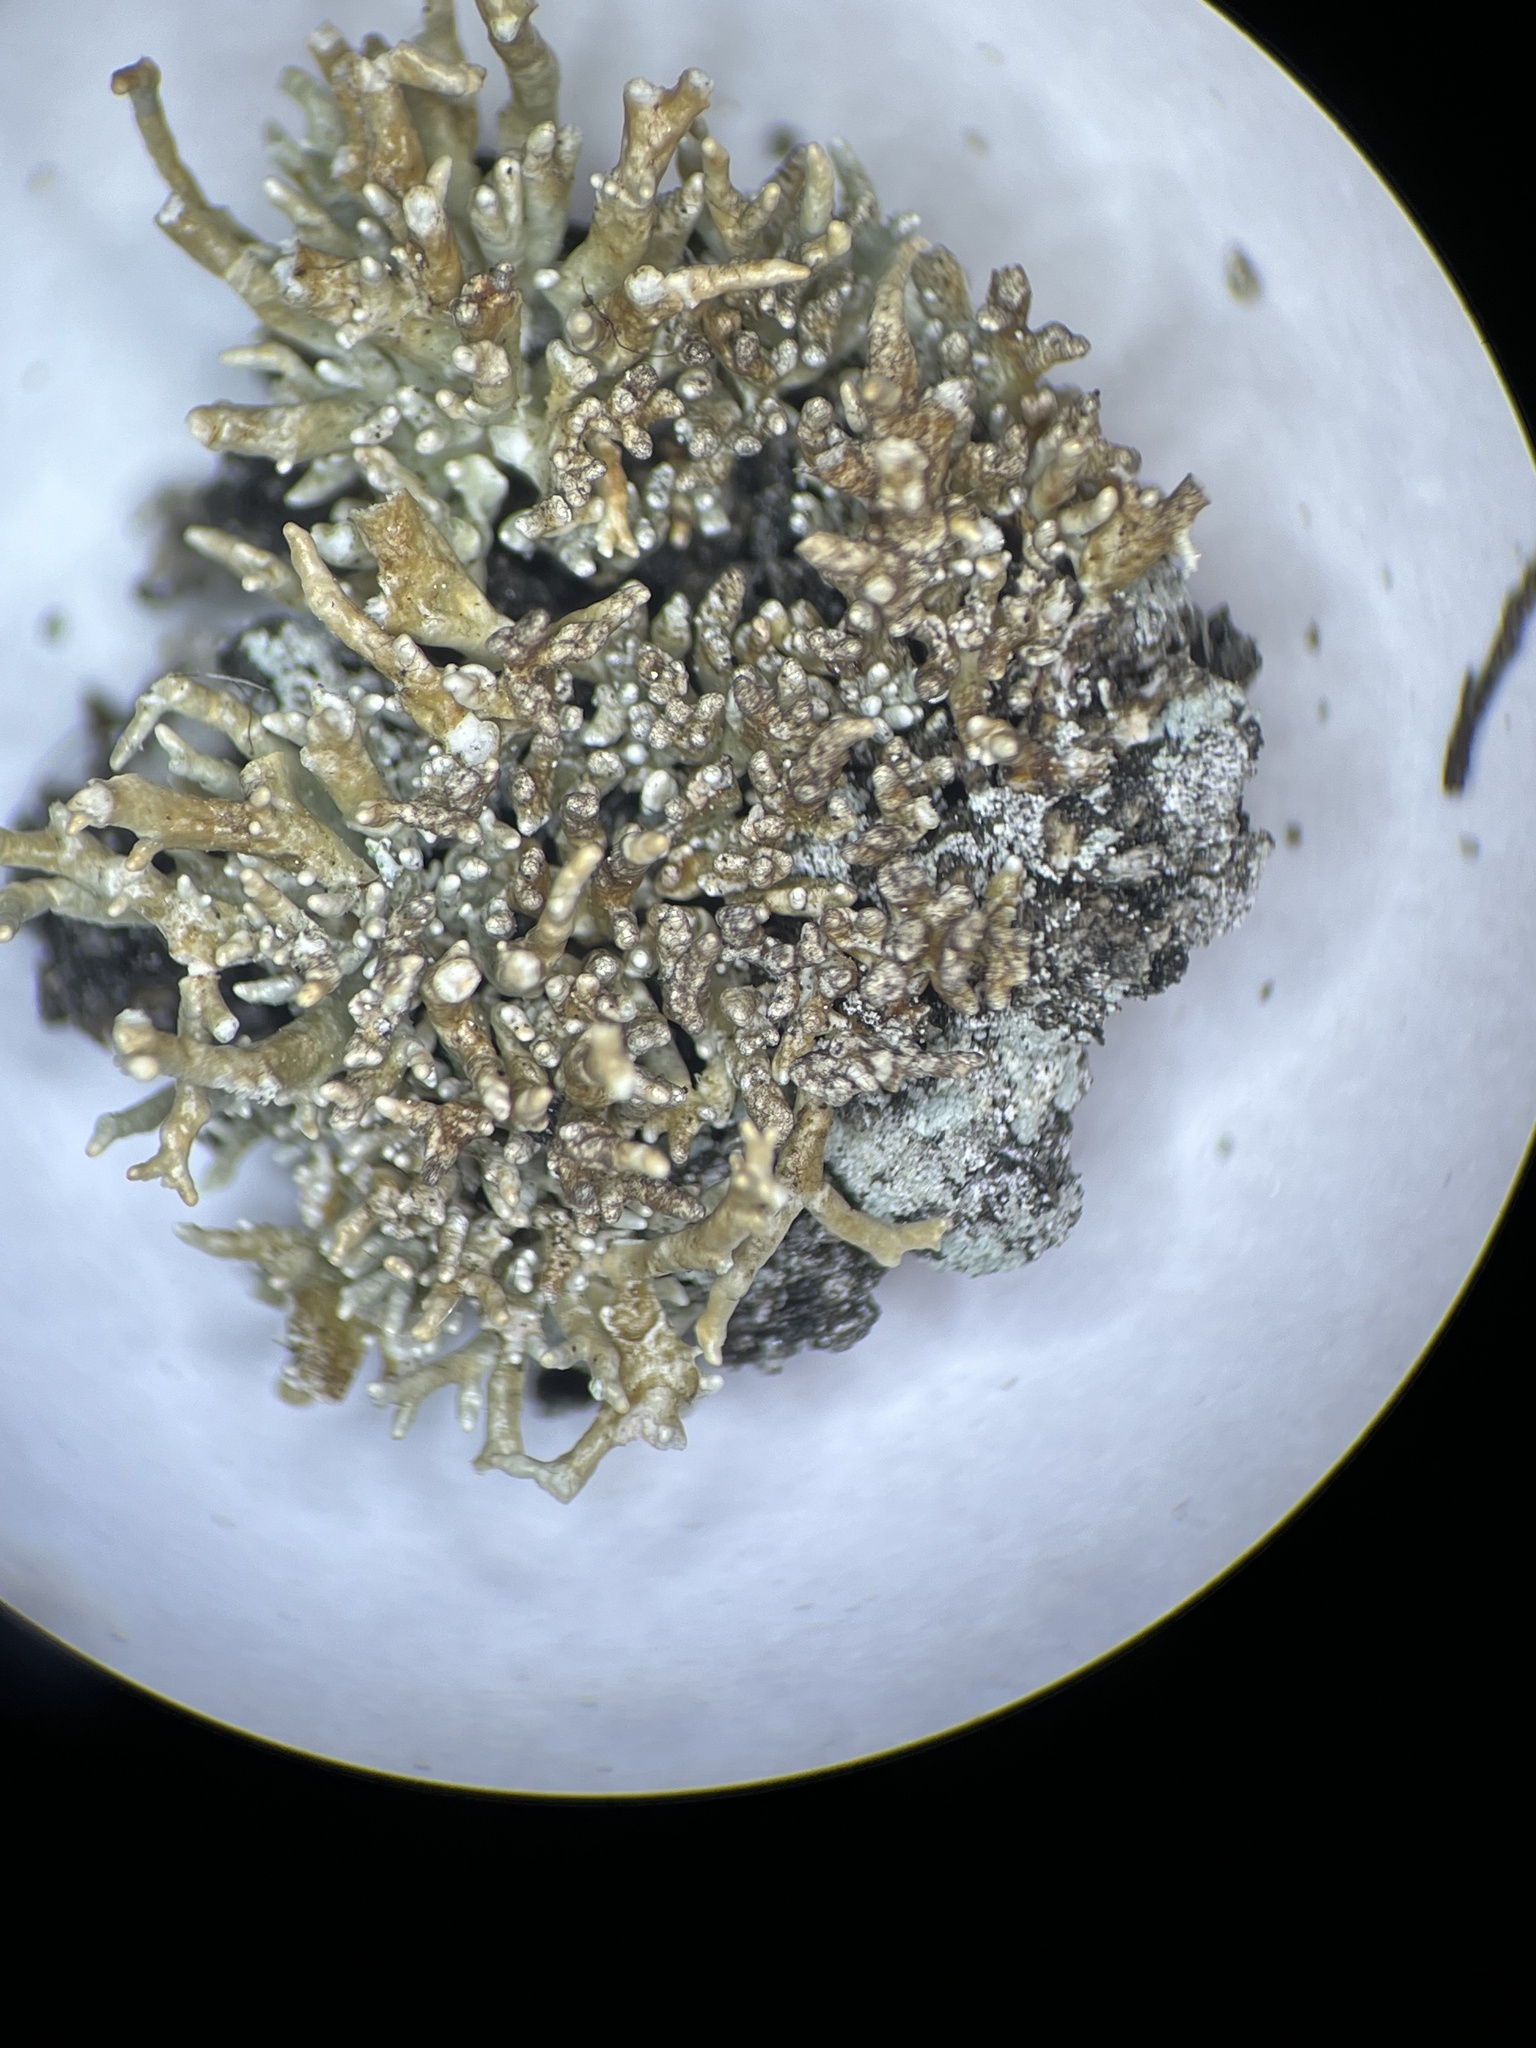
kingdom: Fungi
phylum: Ascomycota
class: Lecanoromycetes
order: Lecanorales
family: Sphaerophoraceae
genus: Sphaerophorus
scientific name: Sphaerophorus fragilis
